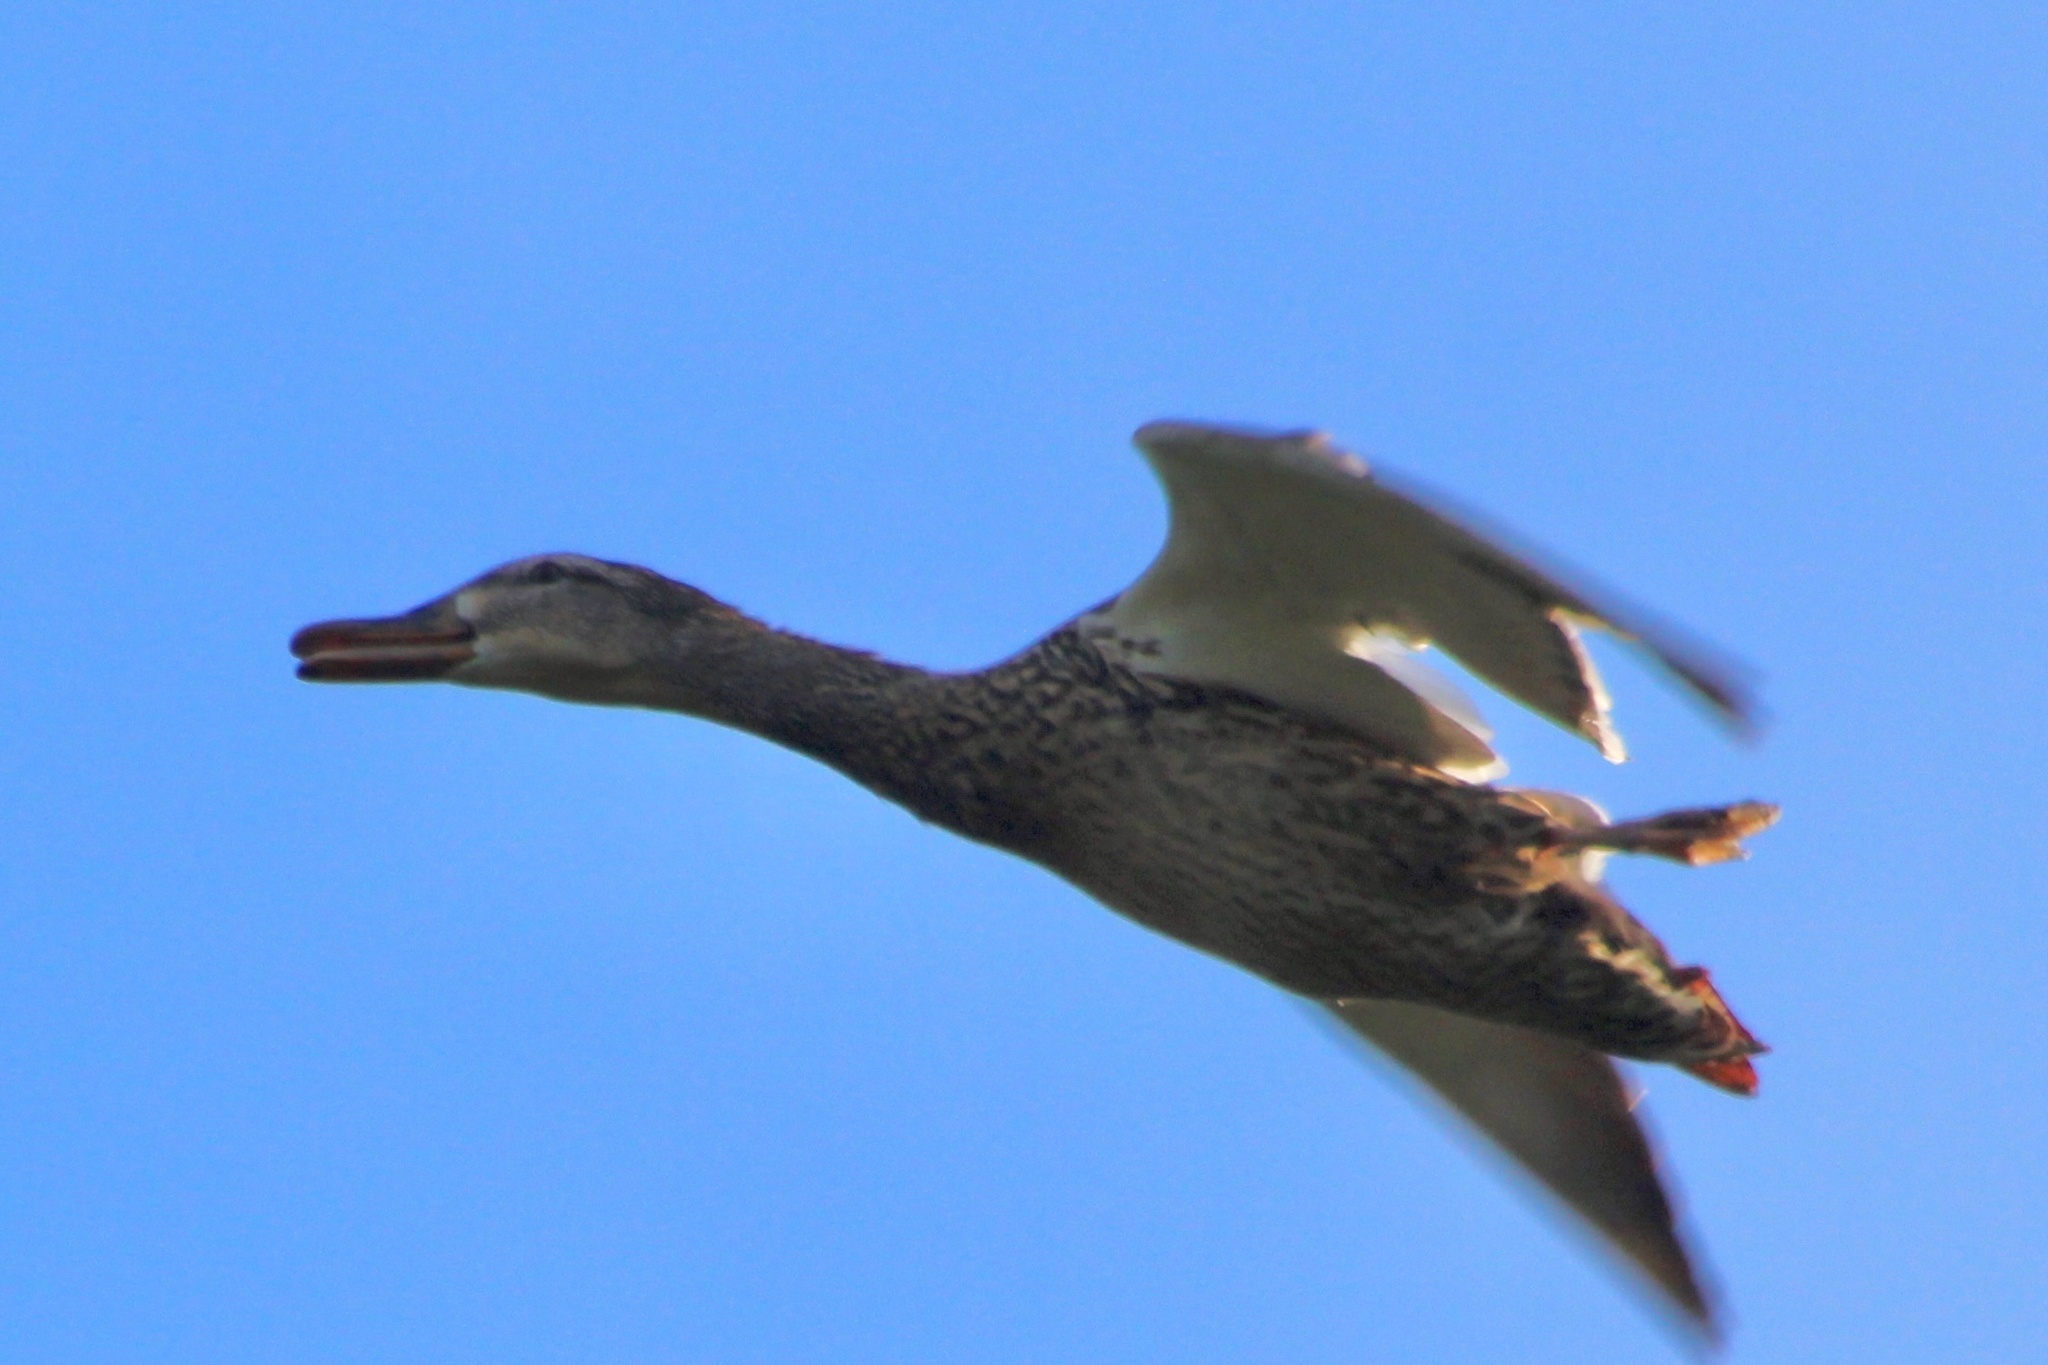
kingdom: Animalia
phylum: Chordata
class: Aves
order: Anseriformes
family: Anatidae
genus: Anas
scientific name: Anas platyrhynchos
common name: Mallard
